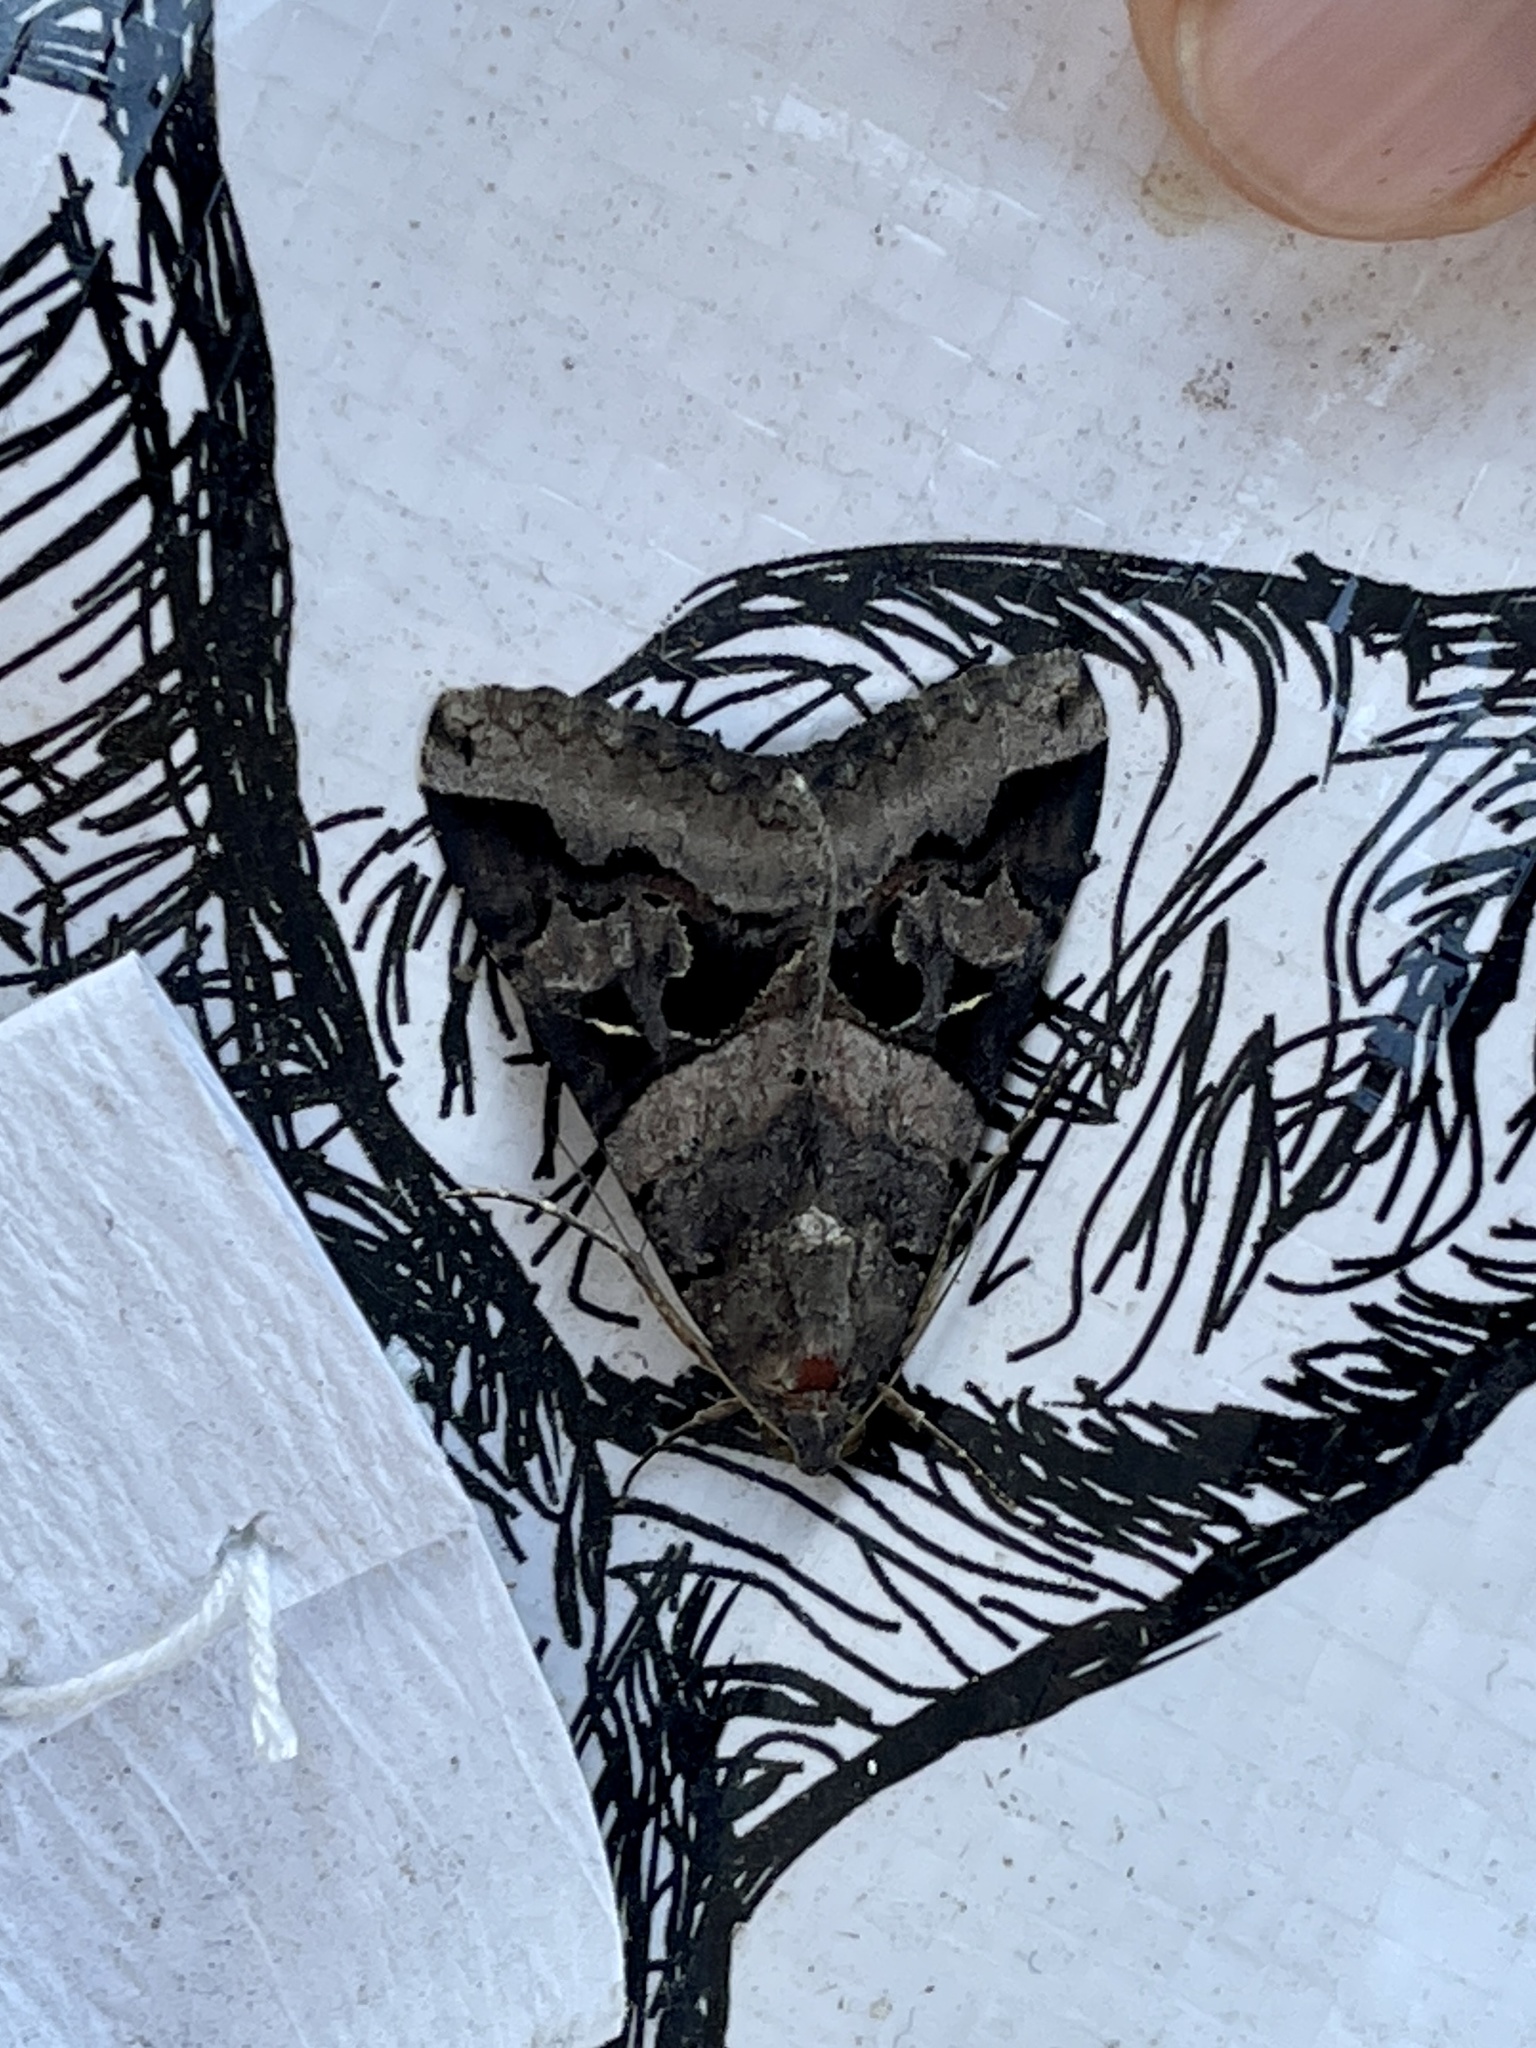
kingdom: Animalia
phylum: Arthropoda
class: Insecta
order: Lepidoptera
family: Erebidae
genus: Melipotis
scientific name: Melipotis indomita
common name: Moth
